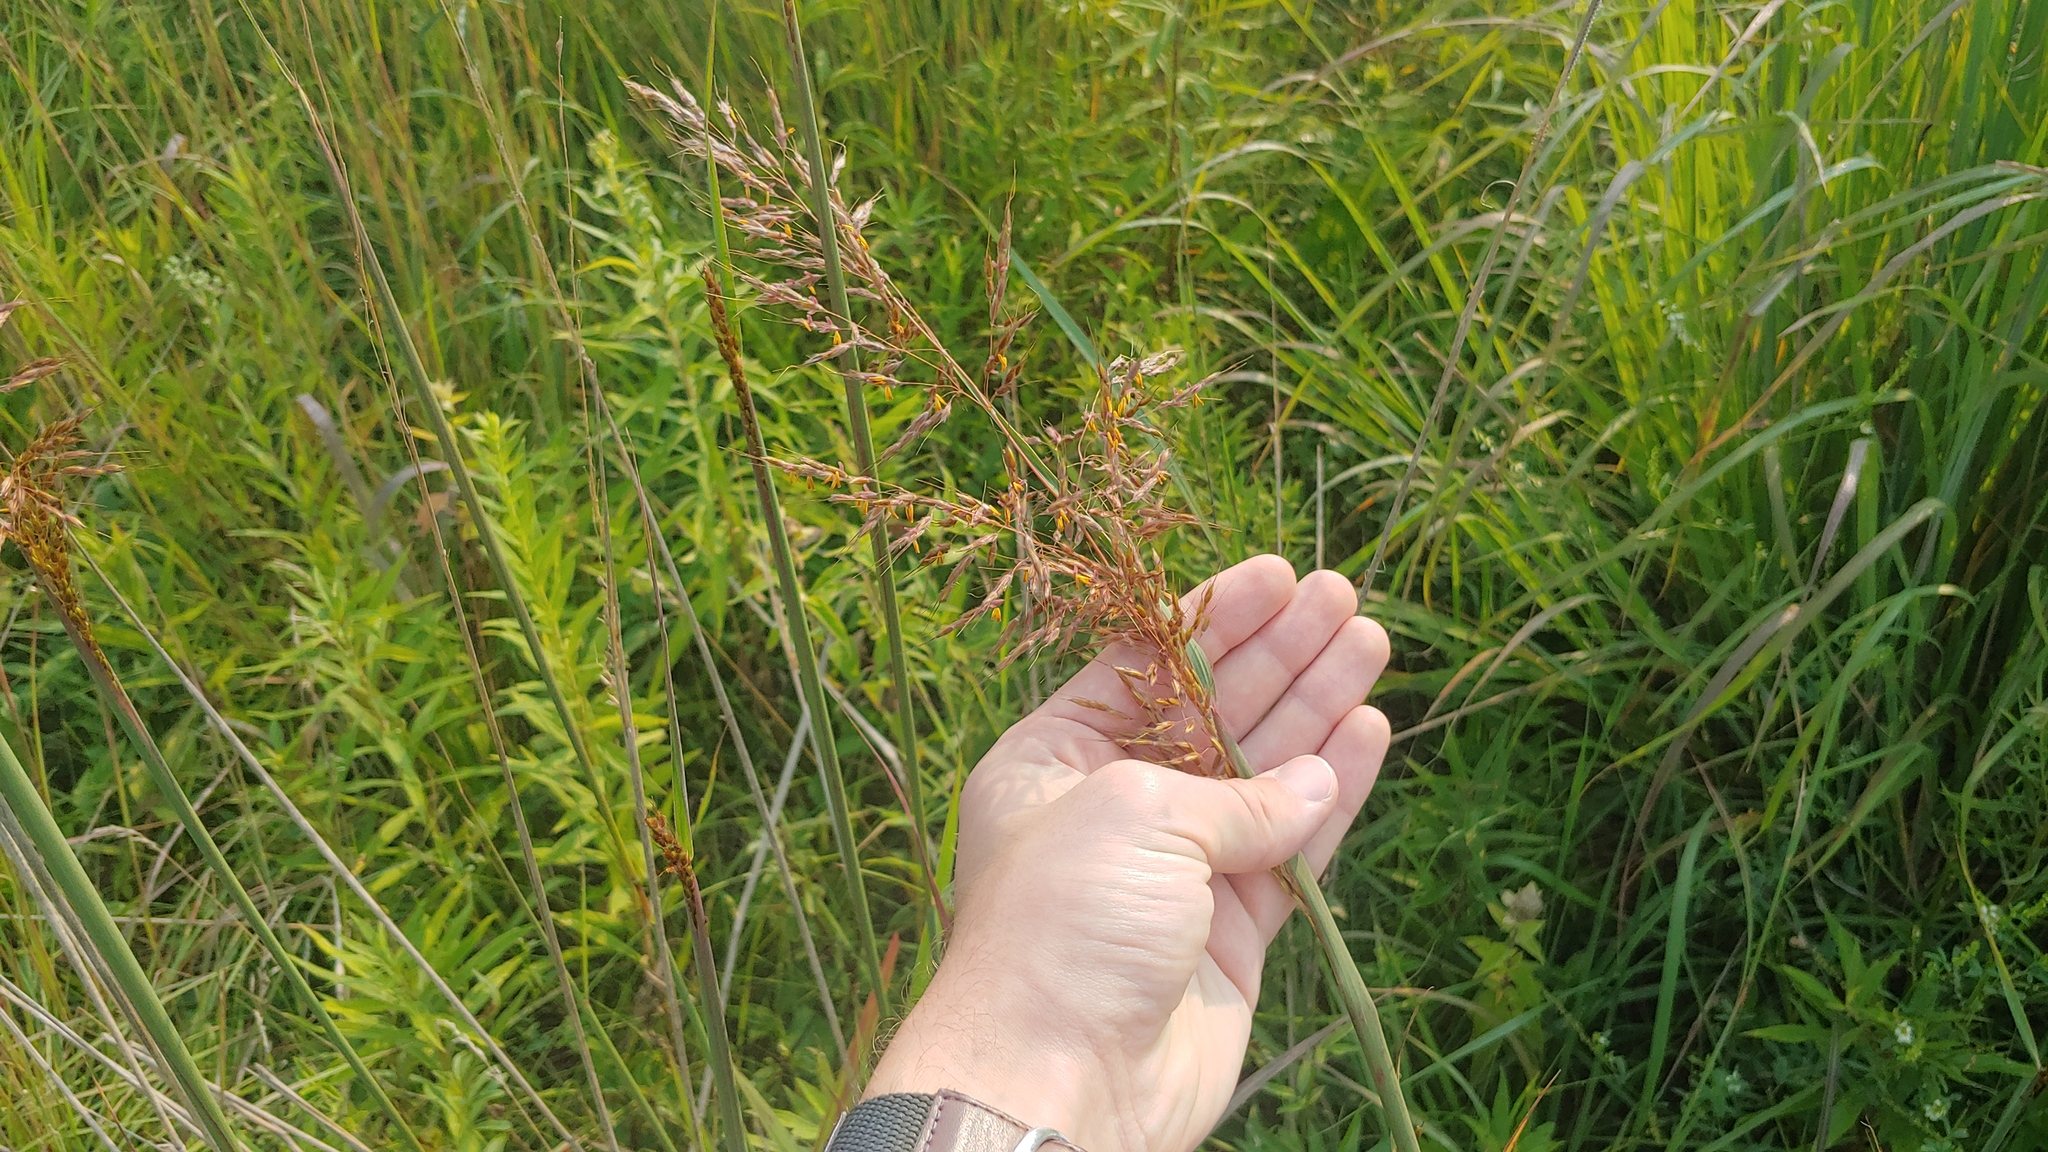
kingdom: Plantae
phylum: Tracheophyta
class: Liliopsida
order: Poales
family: Poaceae
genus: Sorghastrum
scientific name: Sorghastrum nutans
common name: Indian grass
